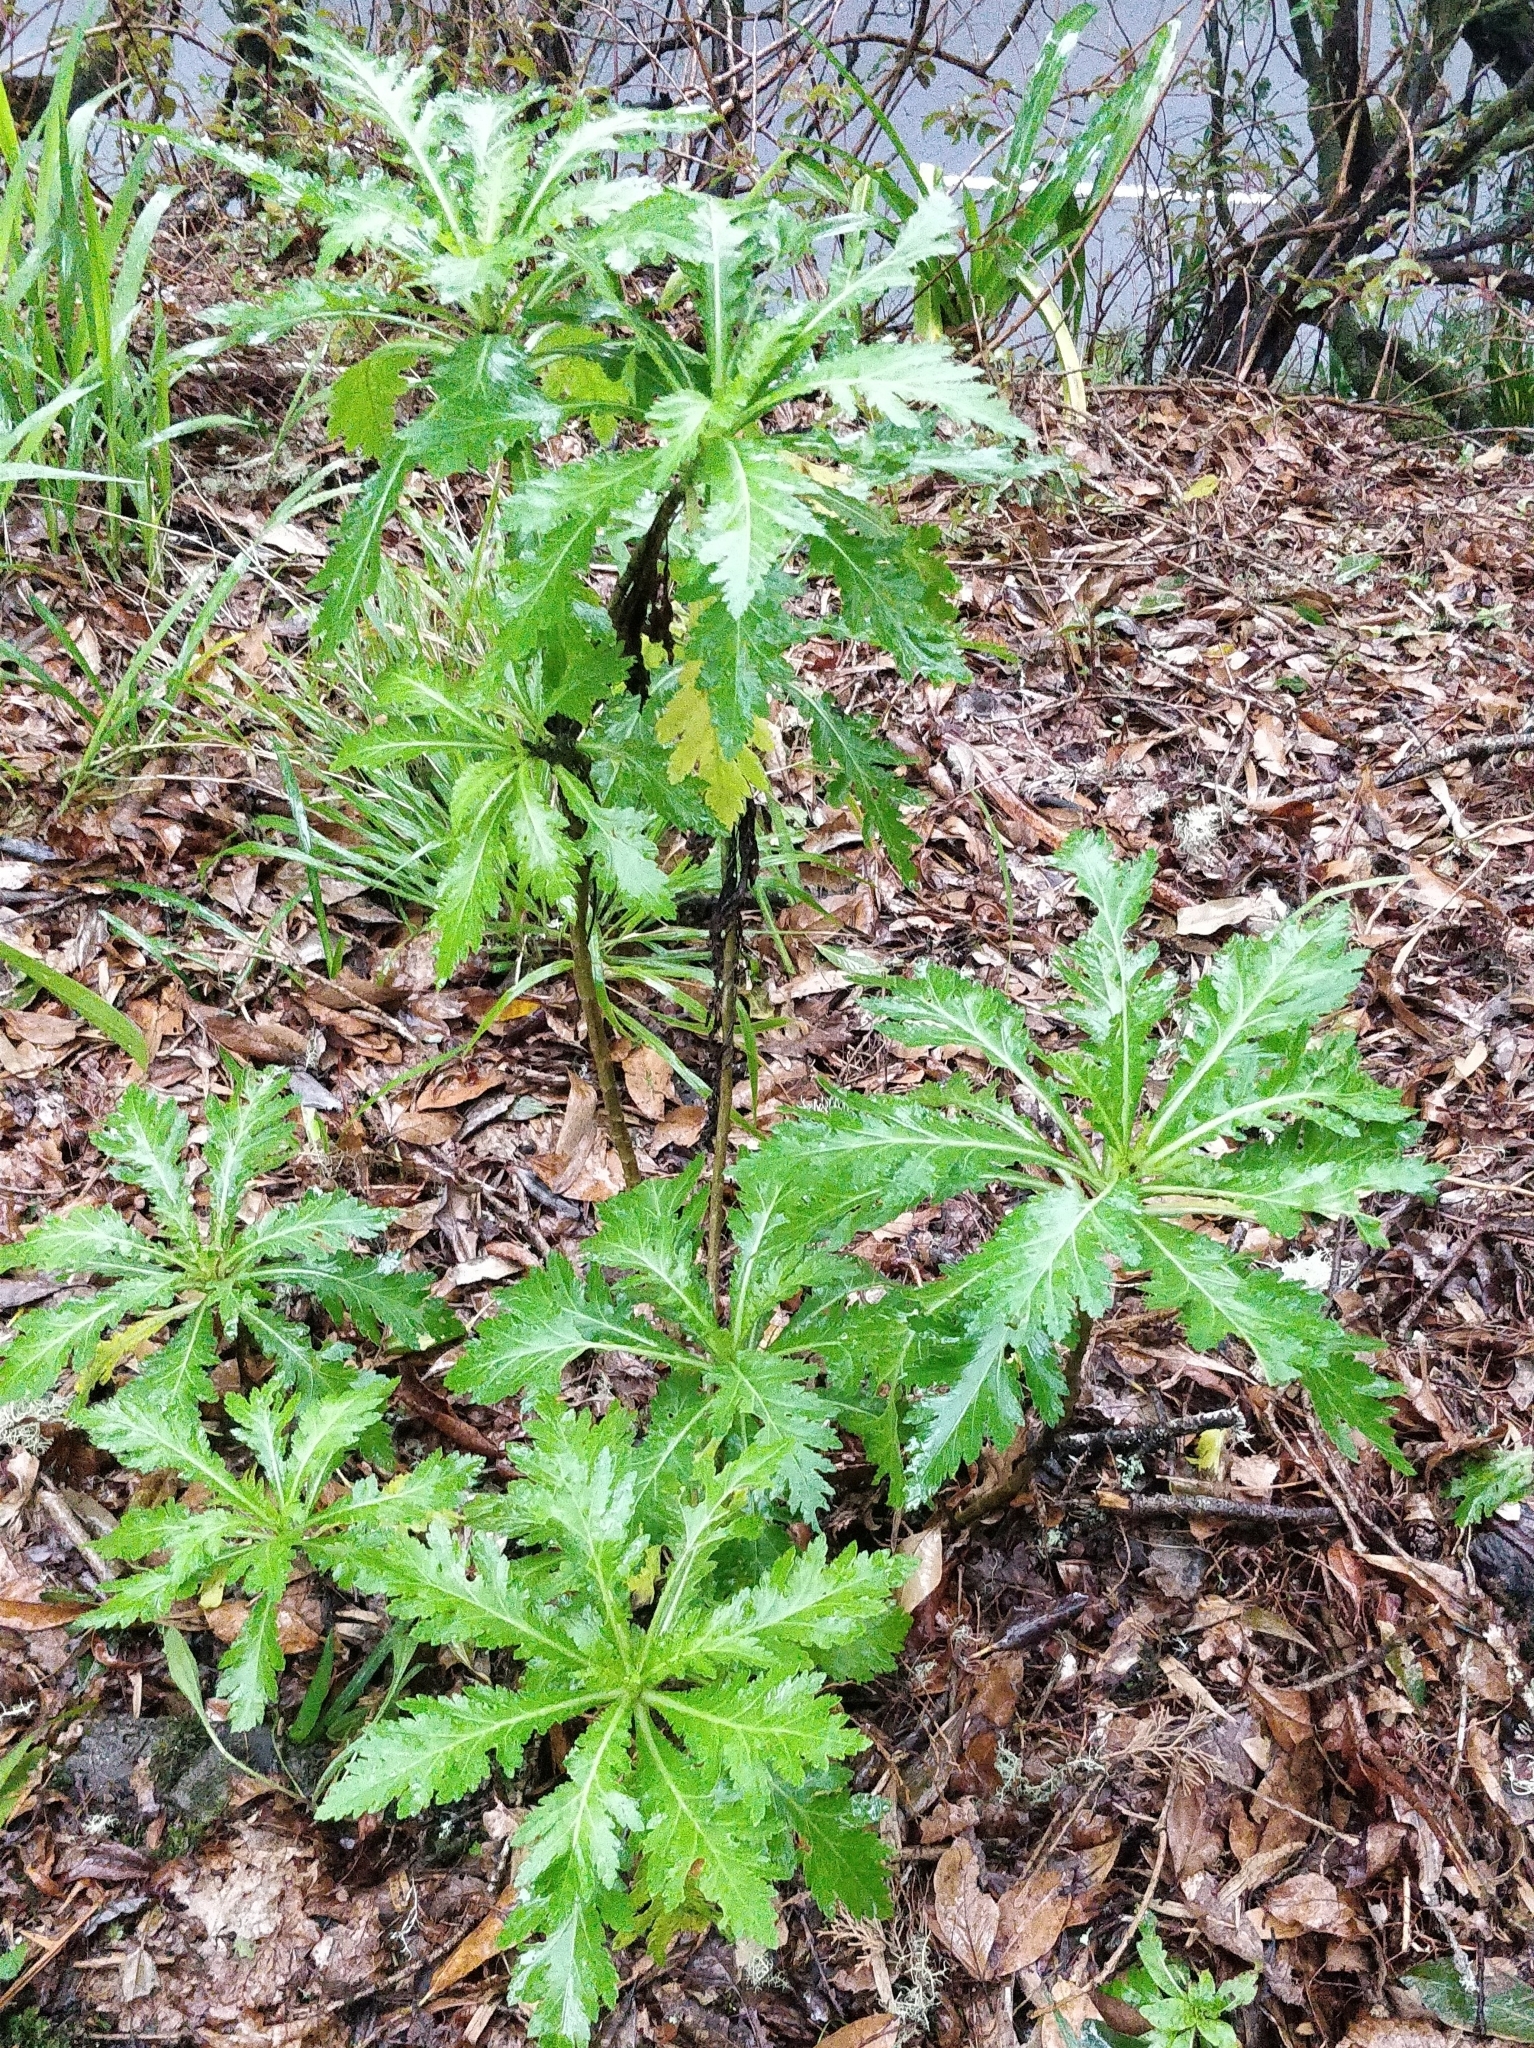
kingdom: Plantae
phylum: Tracheophyta
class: Magnoliopsida
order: Asterales
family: Asteraceae
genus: Argyranthemum
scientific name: Argyranthemum pinnatifidum
